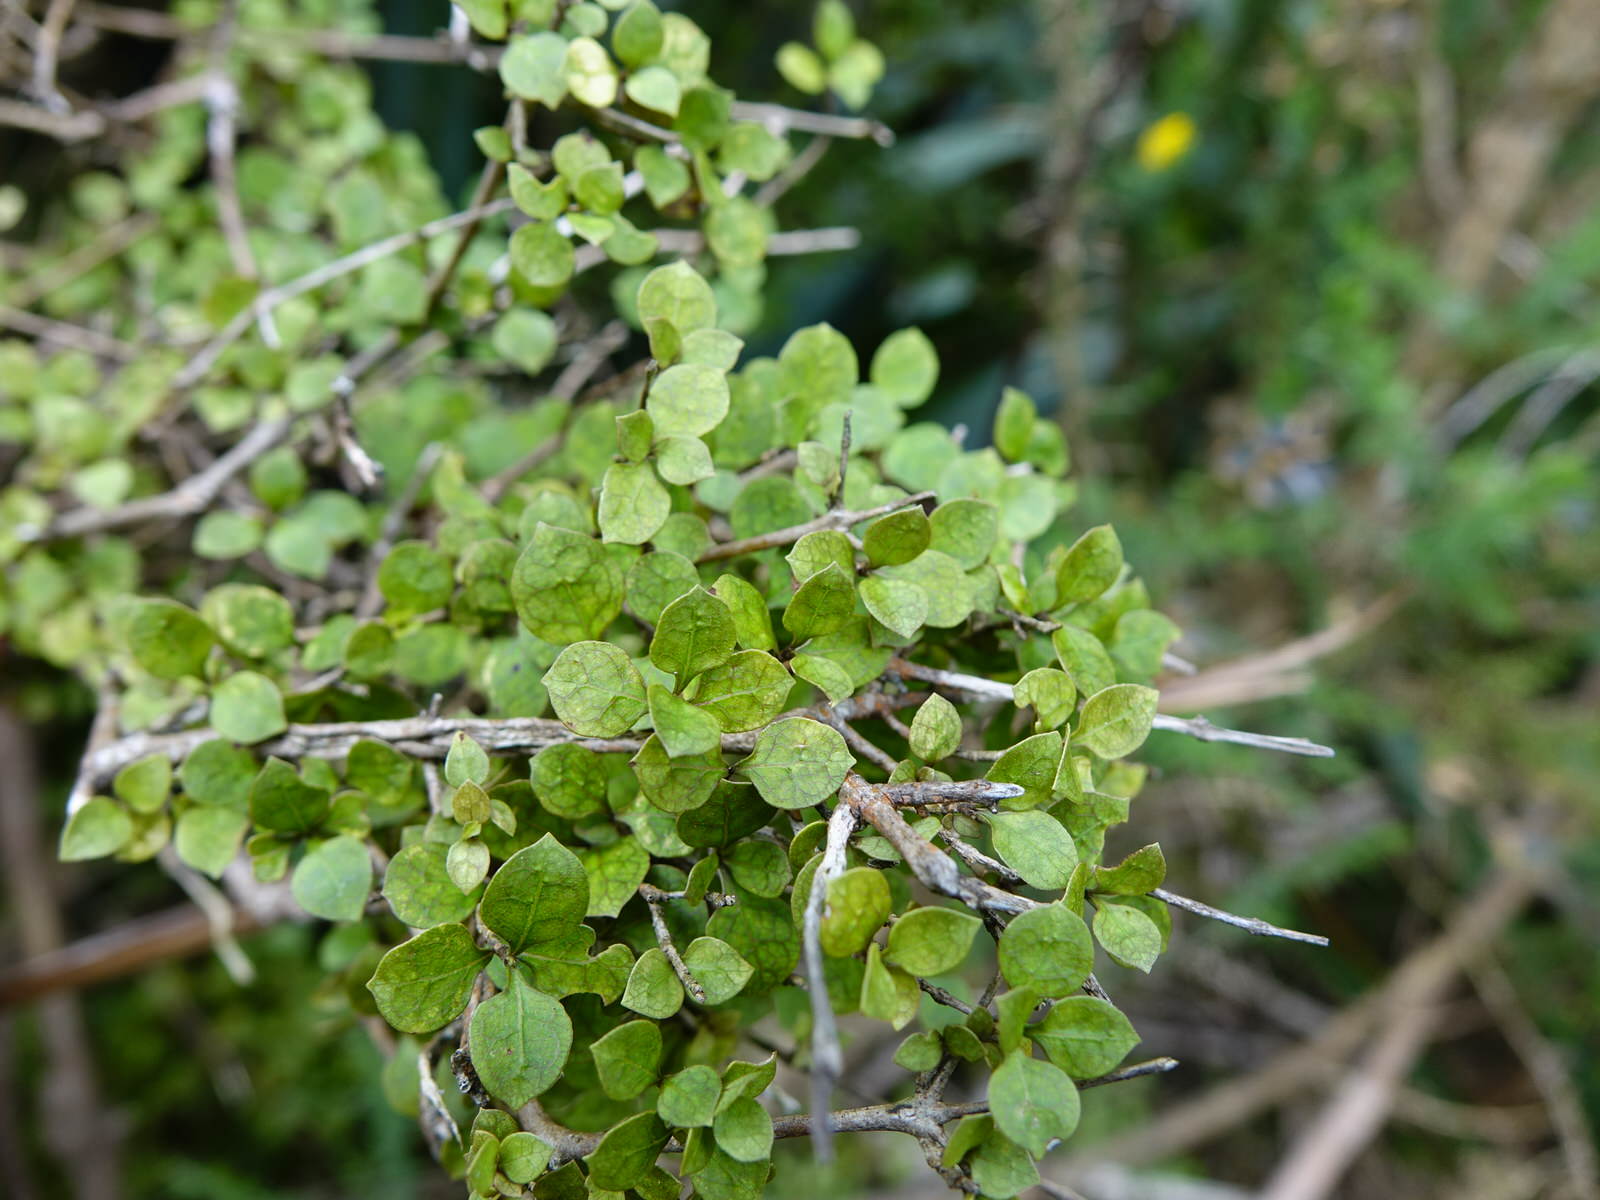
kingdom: Plantae
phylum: Tracheophyta
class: Magnoliopsida
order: Gentianales
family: Rubiaceae
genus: Coprosma
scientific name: Coprosma areolata
